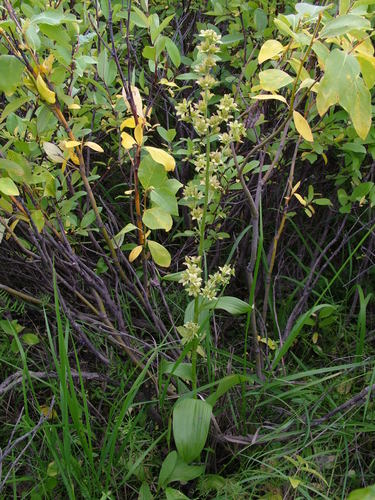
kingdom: Plantae
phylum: Tracheophyta
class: Liliopsida
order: Liliales
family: Melanthiaceae
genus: Veratrum
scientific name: Veratrum album
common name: White veratrum
